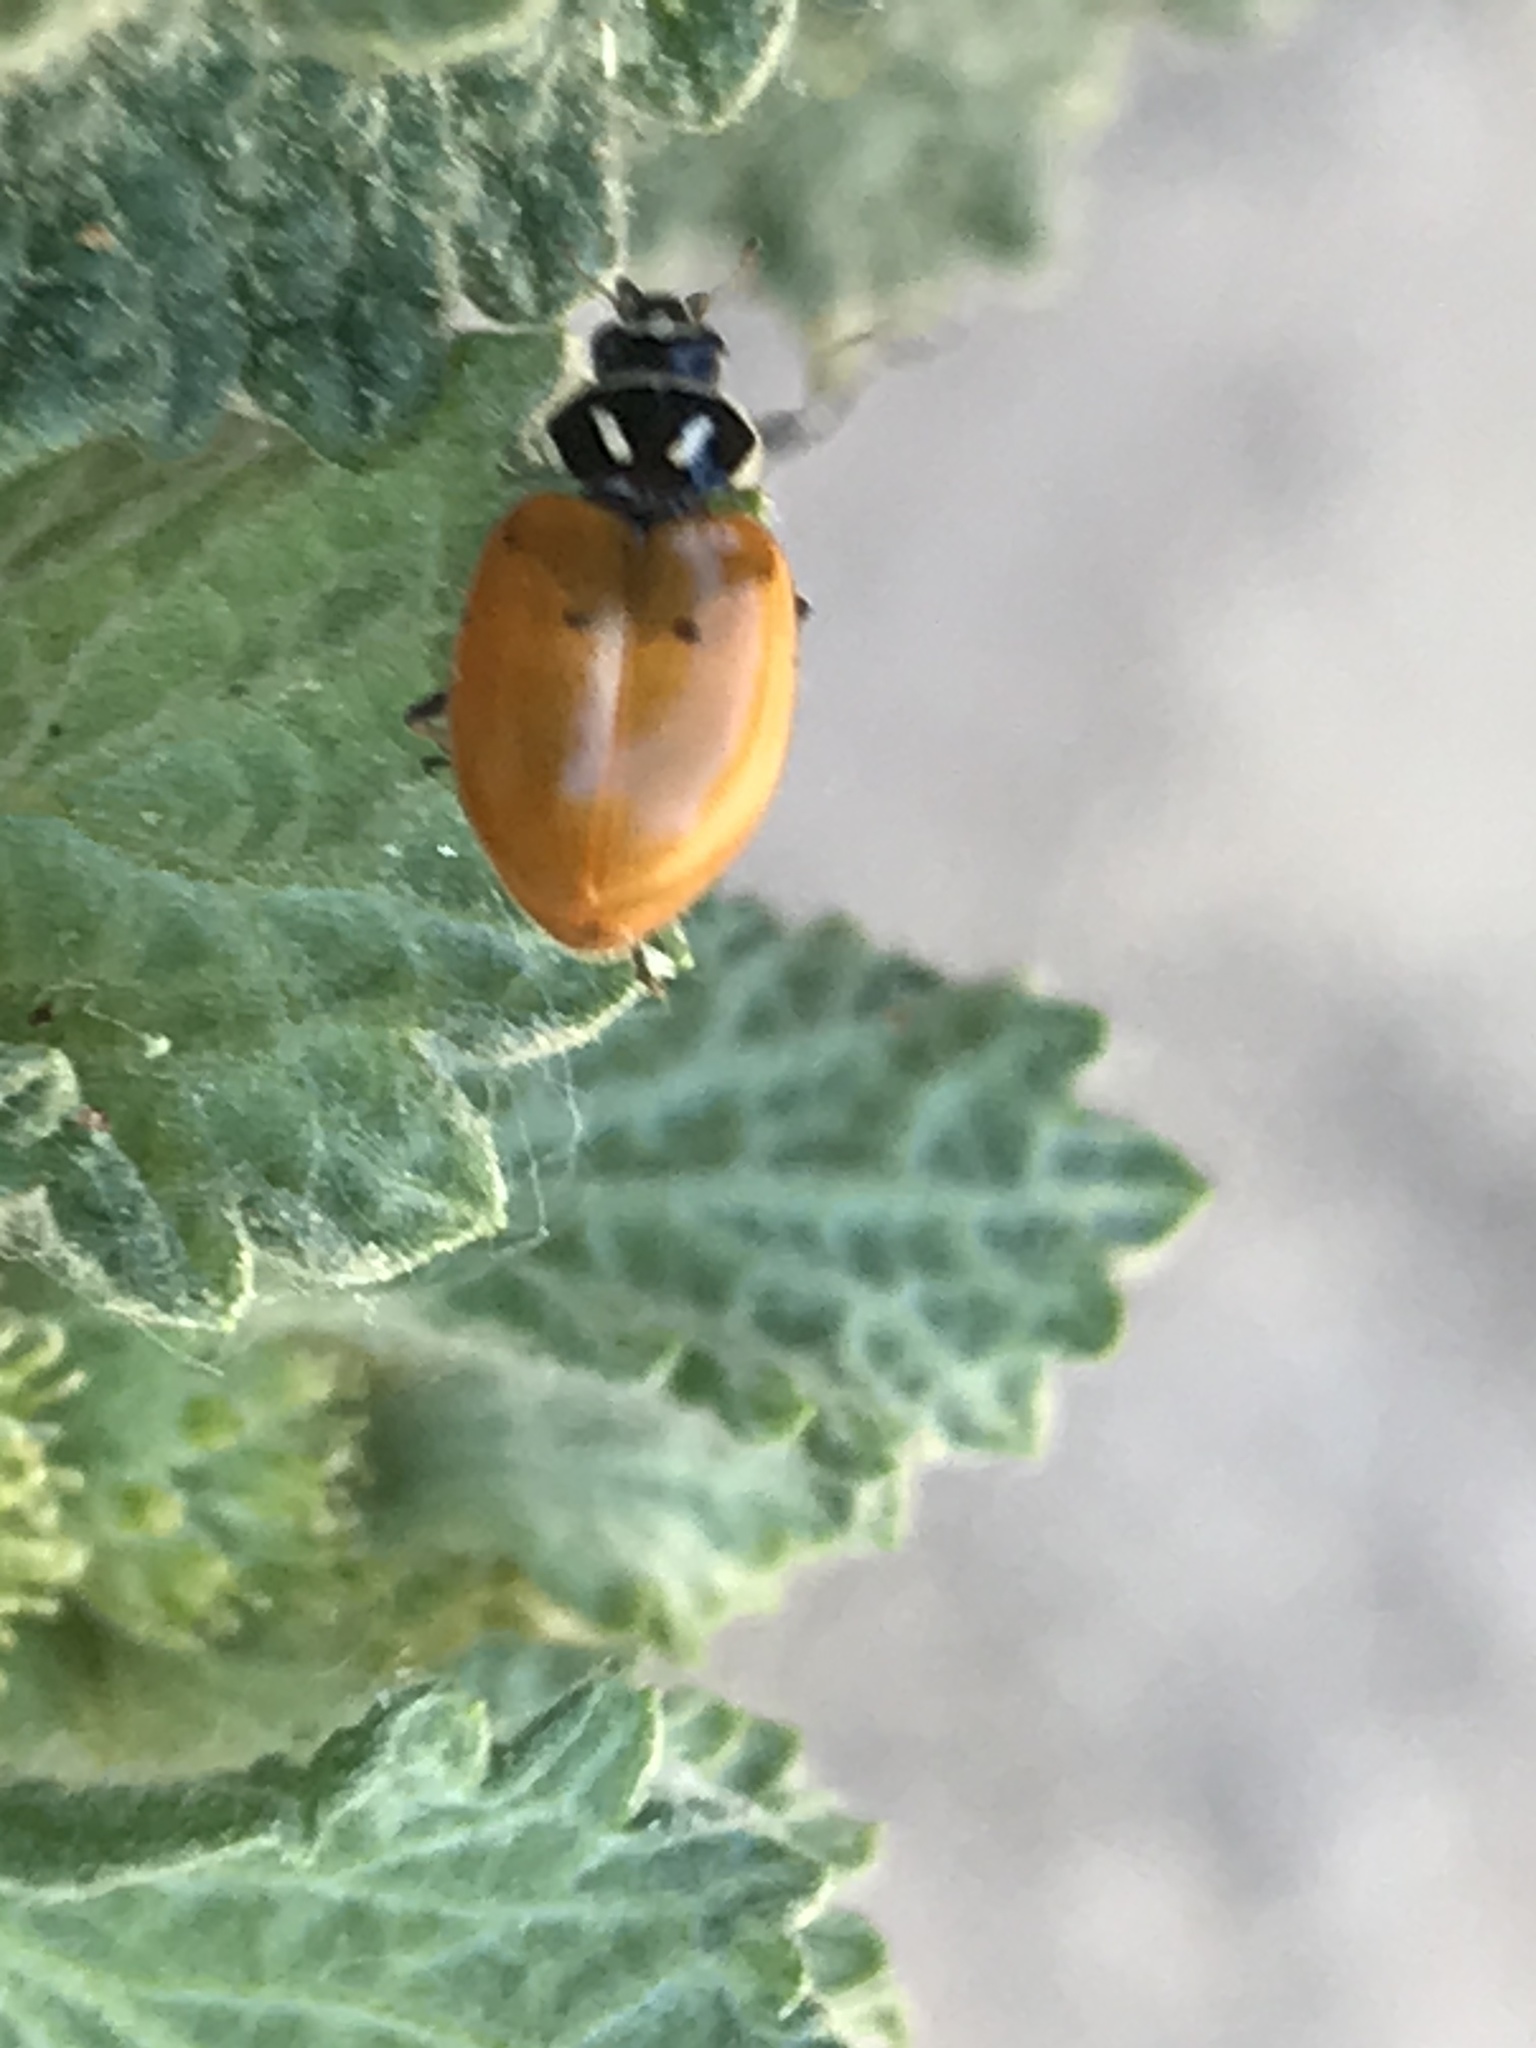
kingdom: Animalia
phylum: Arthropoda
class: Insecta
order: Coleoptera
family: Coccinellidae
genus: Hippodamia
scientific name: Hippodamia convergens
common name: Convergent lady beetle
